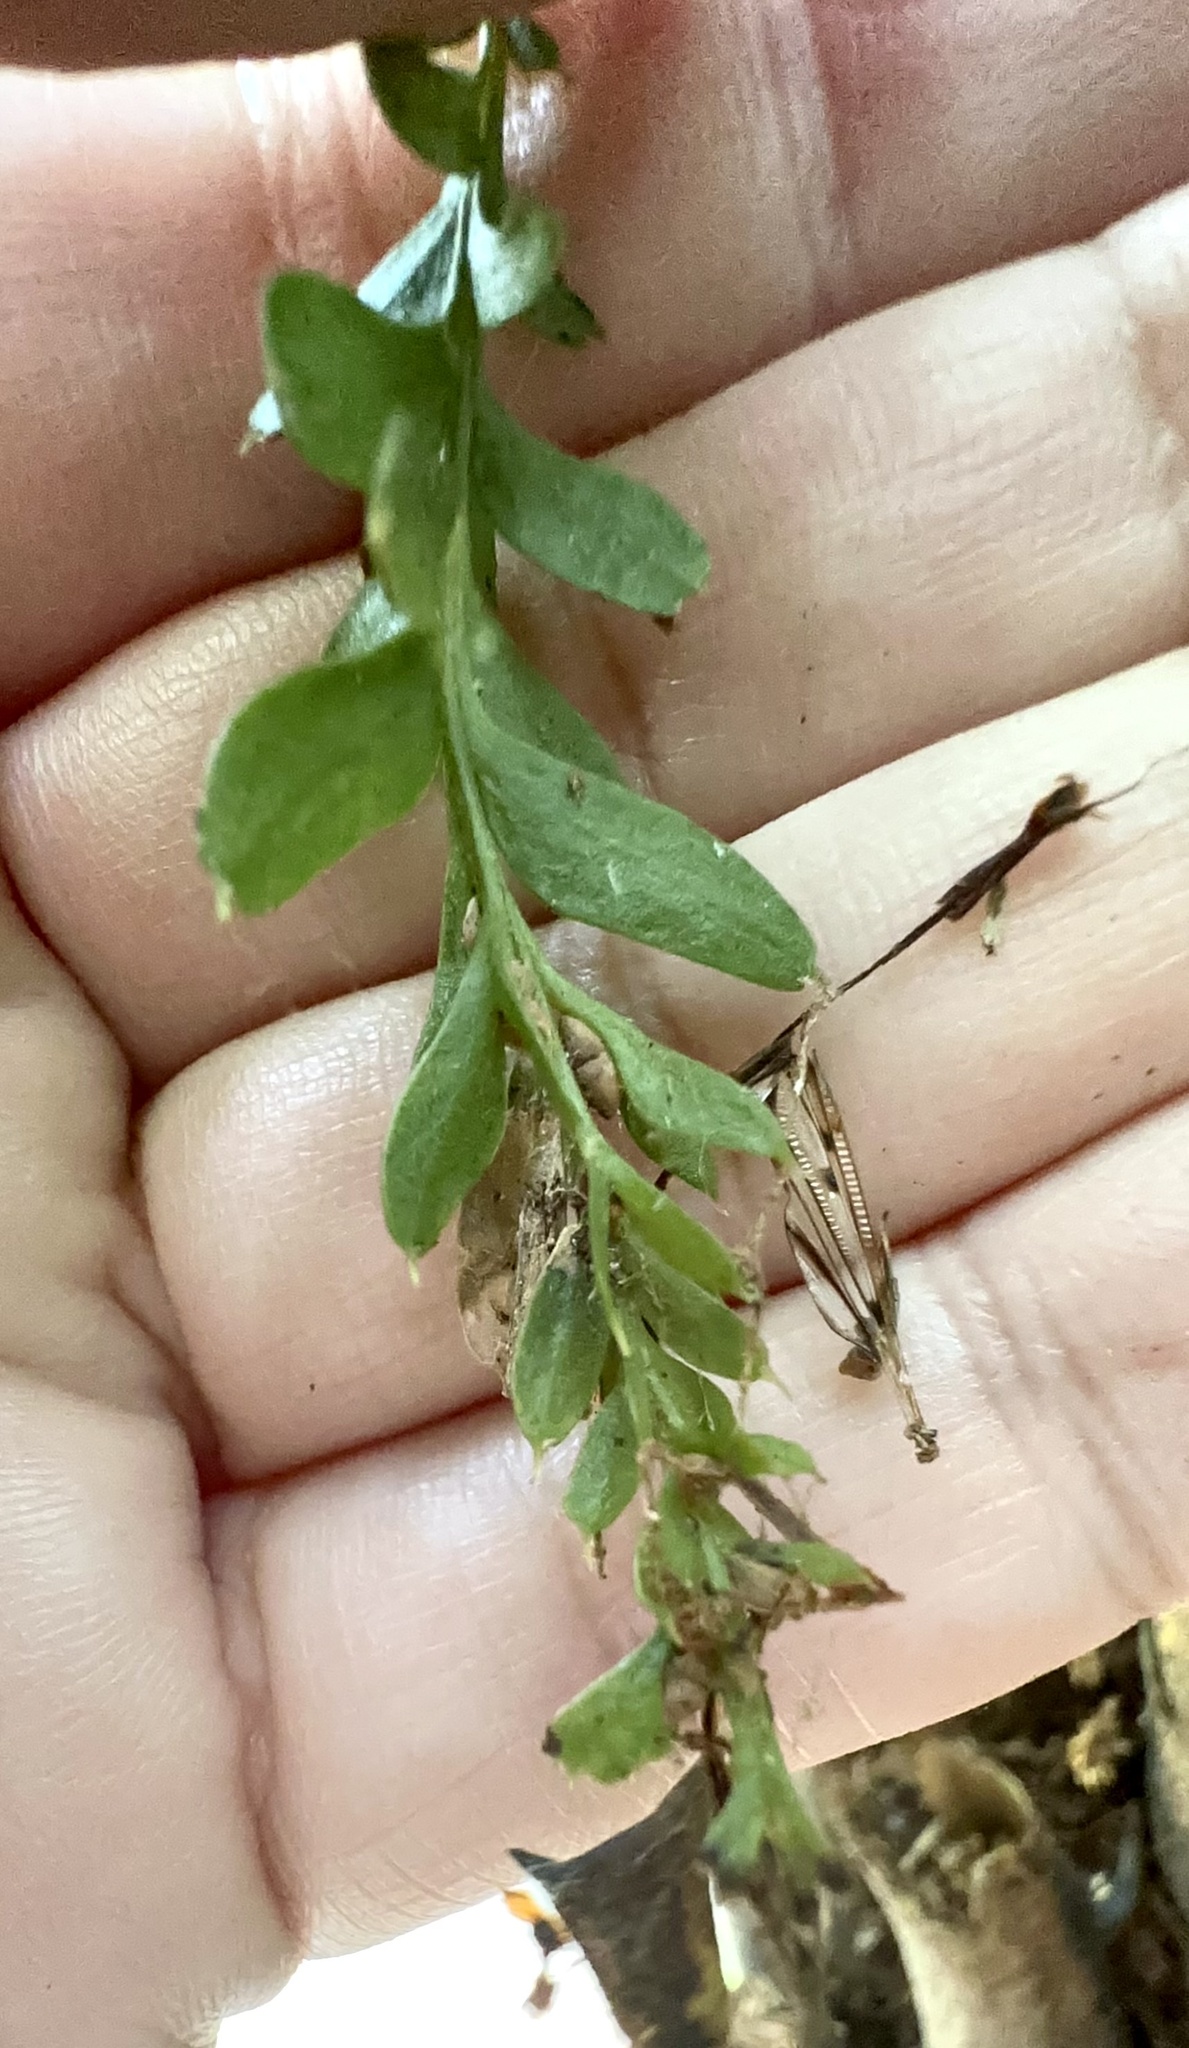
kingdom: Plantae
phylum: Tracheophyta
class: Polypodiopsida
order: Psilotales
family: Psilotaceae
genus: Tmesipteris
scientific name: Tmesipteris tannensis
